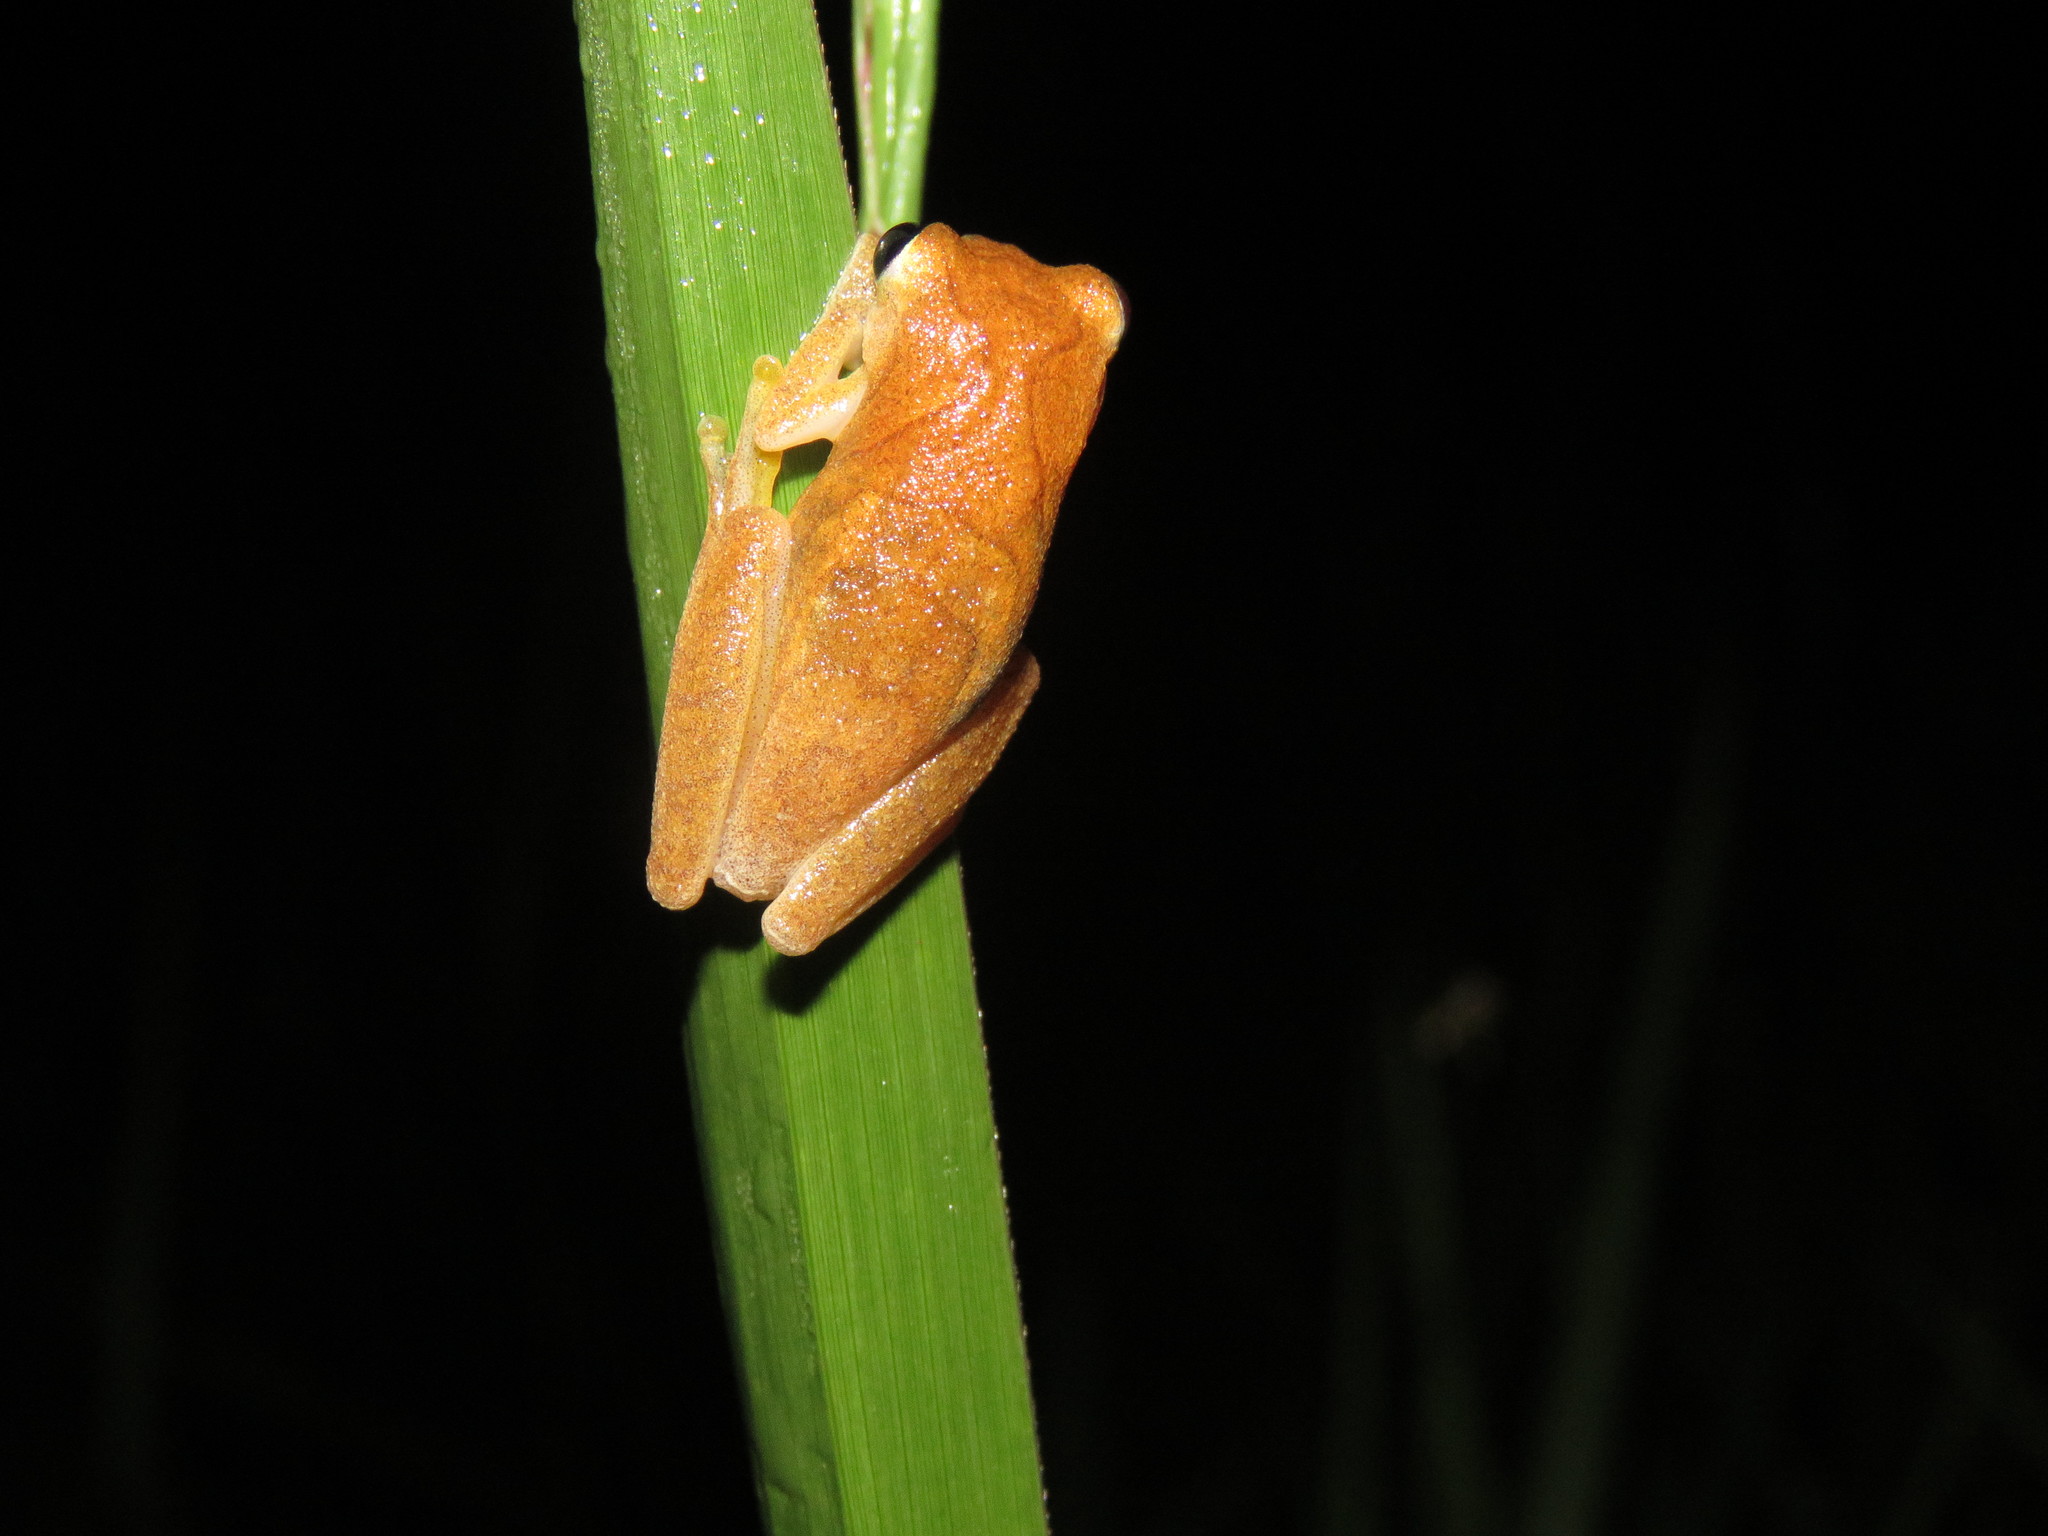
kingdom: Animalia
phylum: Chordata
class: Amphibia
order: Anura
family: Hylidae
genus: Dendropsophus
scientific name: Dendropsophus minutus
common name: Lesser treefrog
